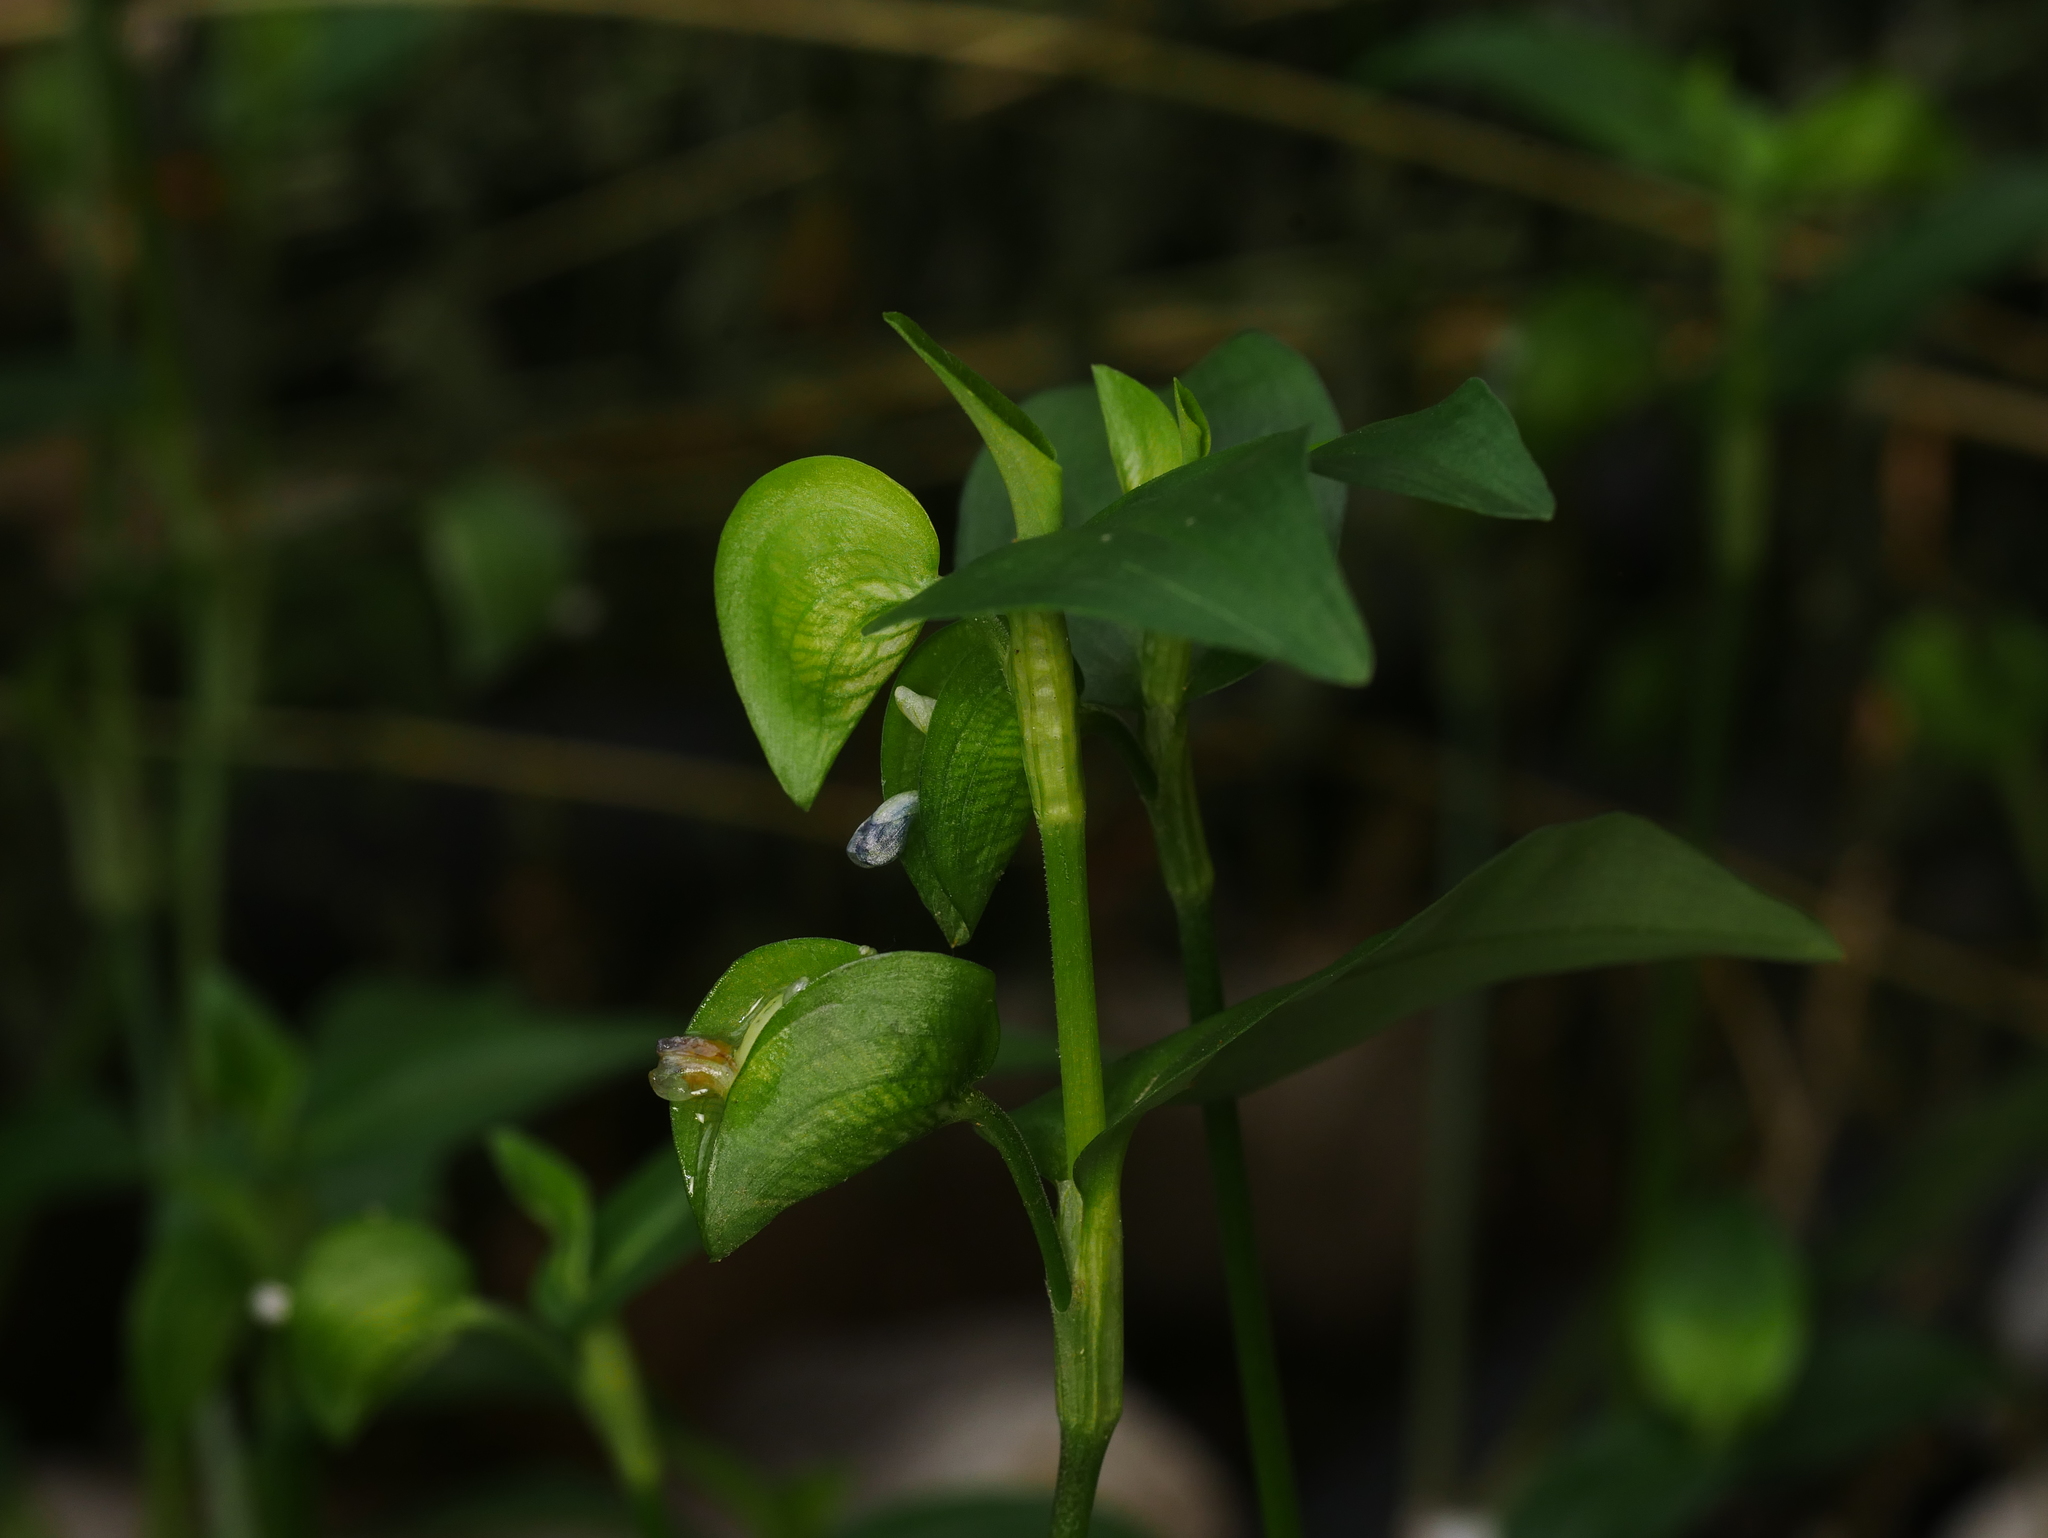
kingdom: Plantae
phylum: Tracheophyta
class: Liliopsida
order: Commelinales
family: Commelinaceae
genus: Commelina
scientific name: Commelina communis
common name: Asiatic dayflower
